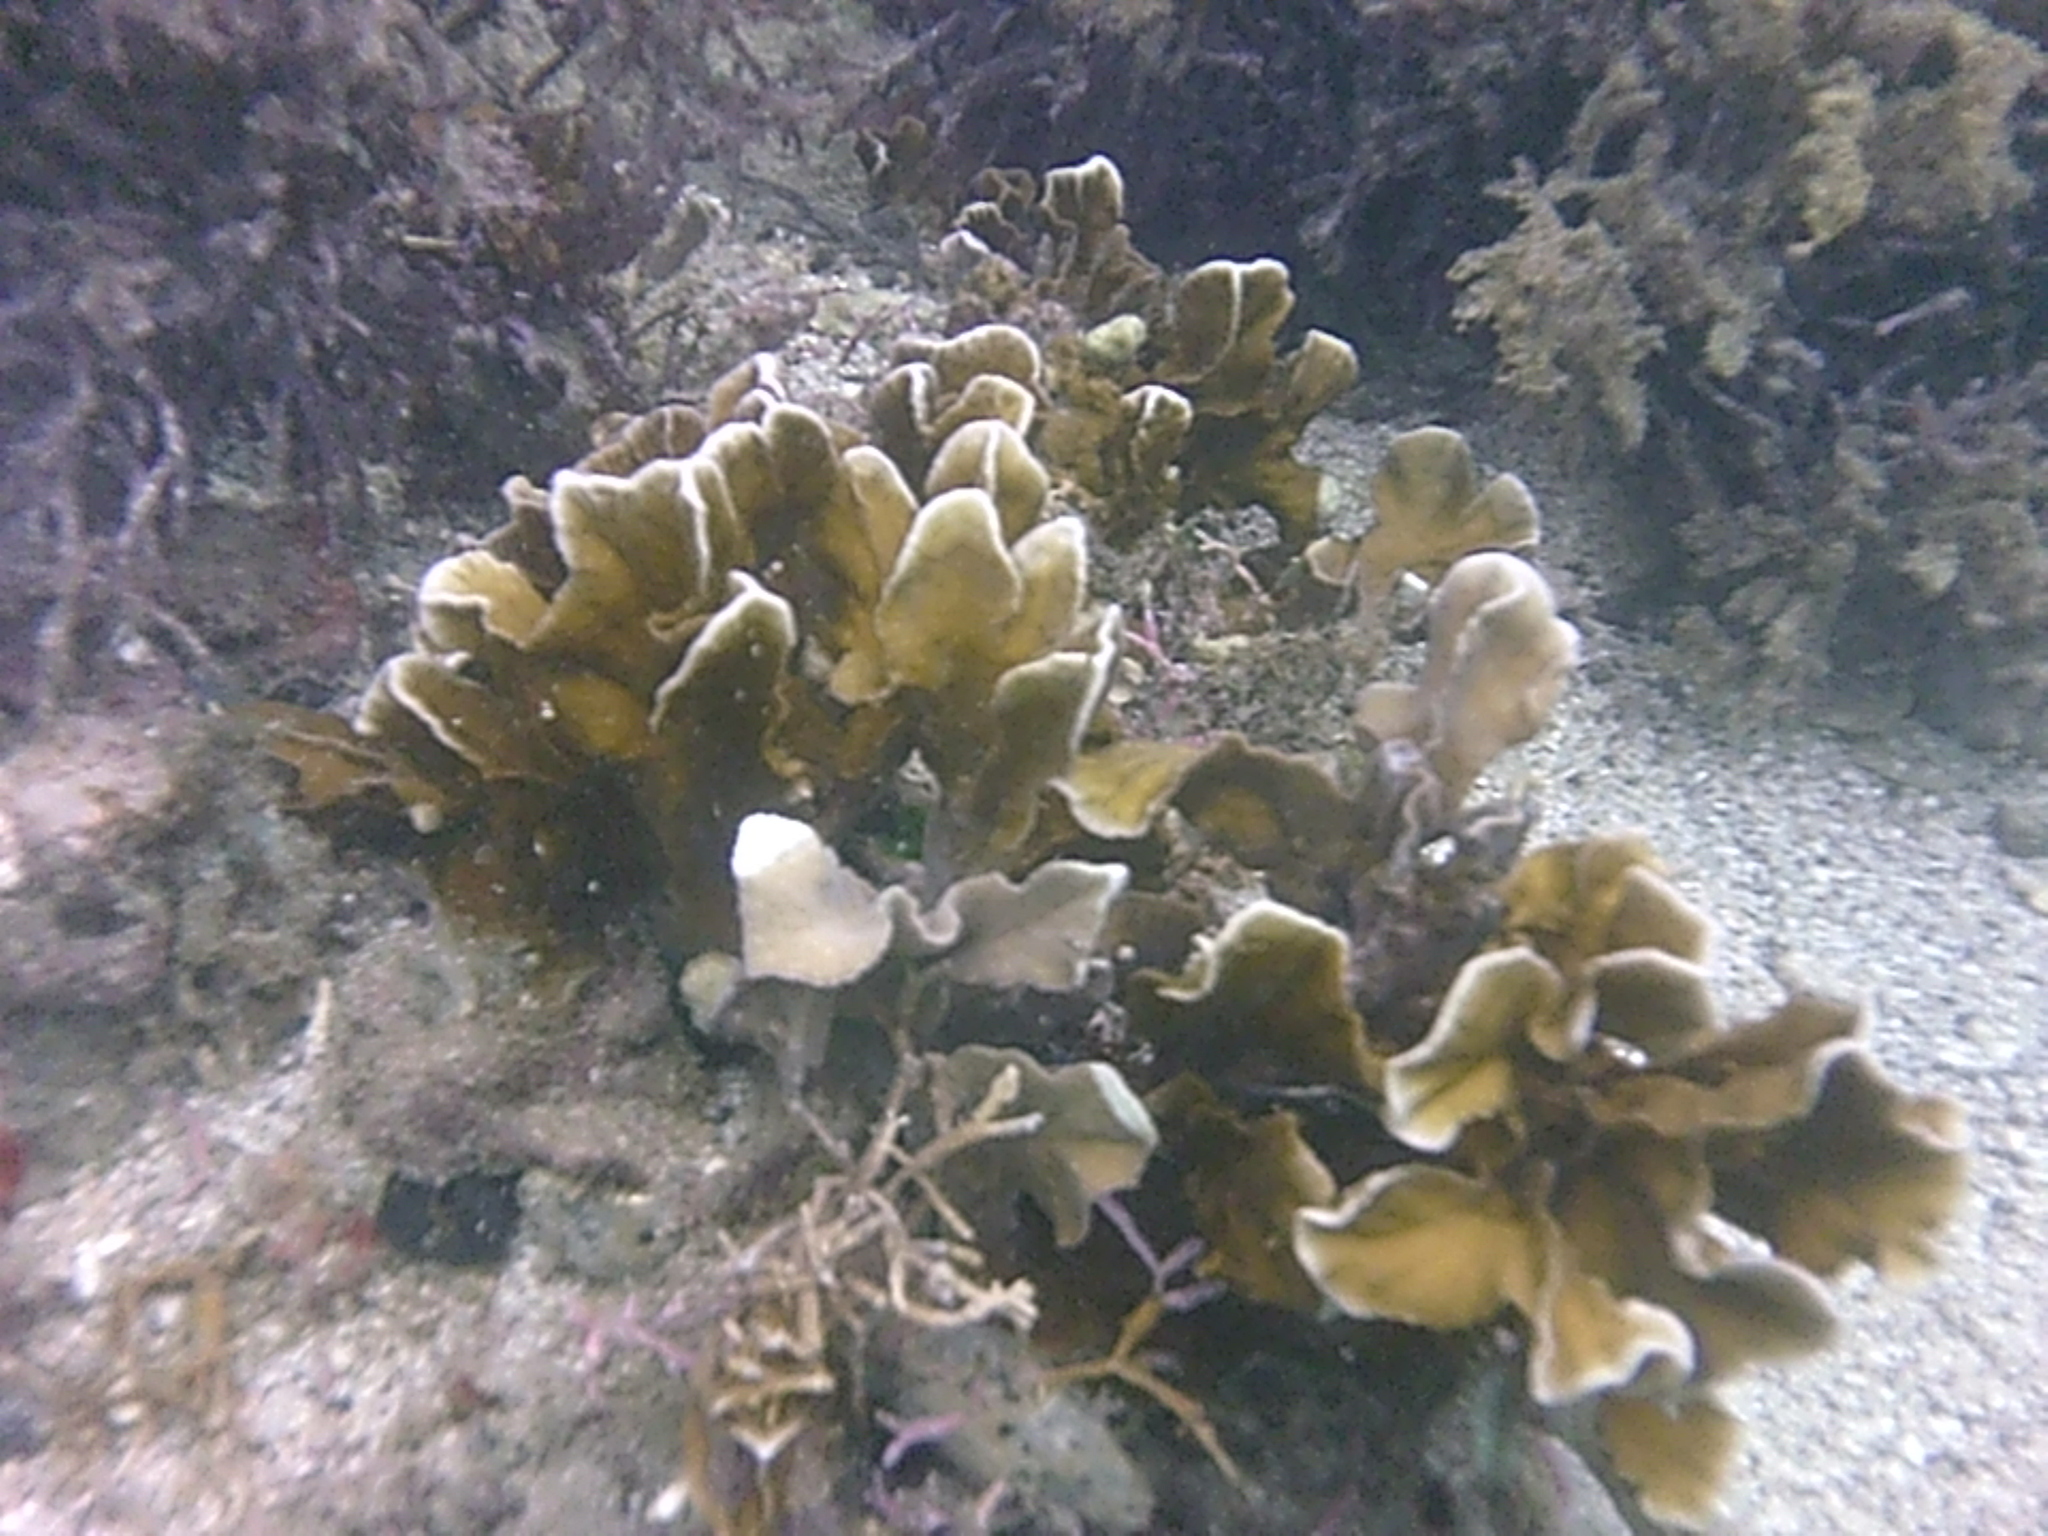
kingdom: Animalia
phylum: Cnidaria
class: Hydrozoa
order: Anthoathecata
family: Milleporidae
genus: Millepora
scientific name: Millepora squarrosa
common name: Crustal fire coral
